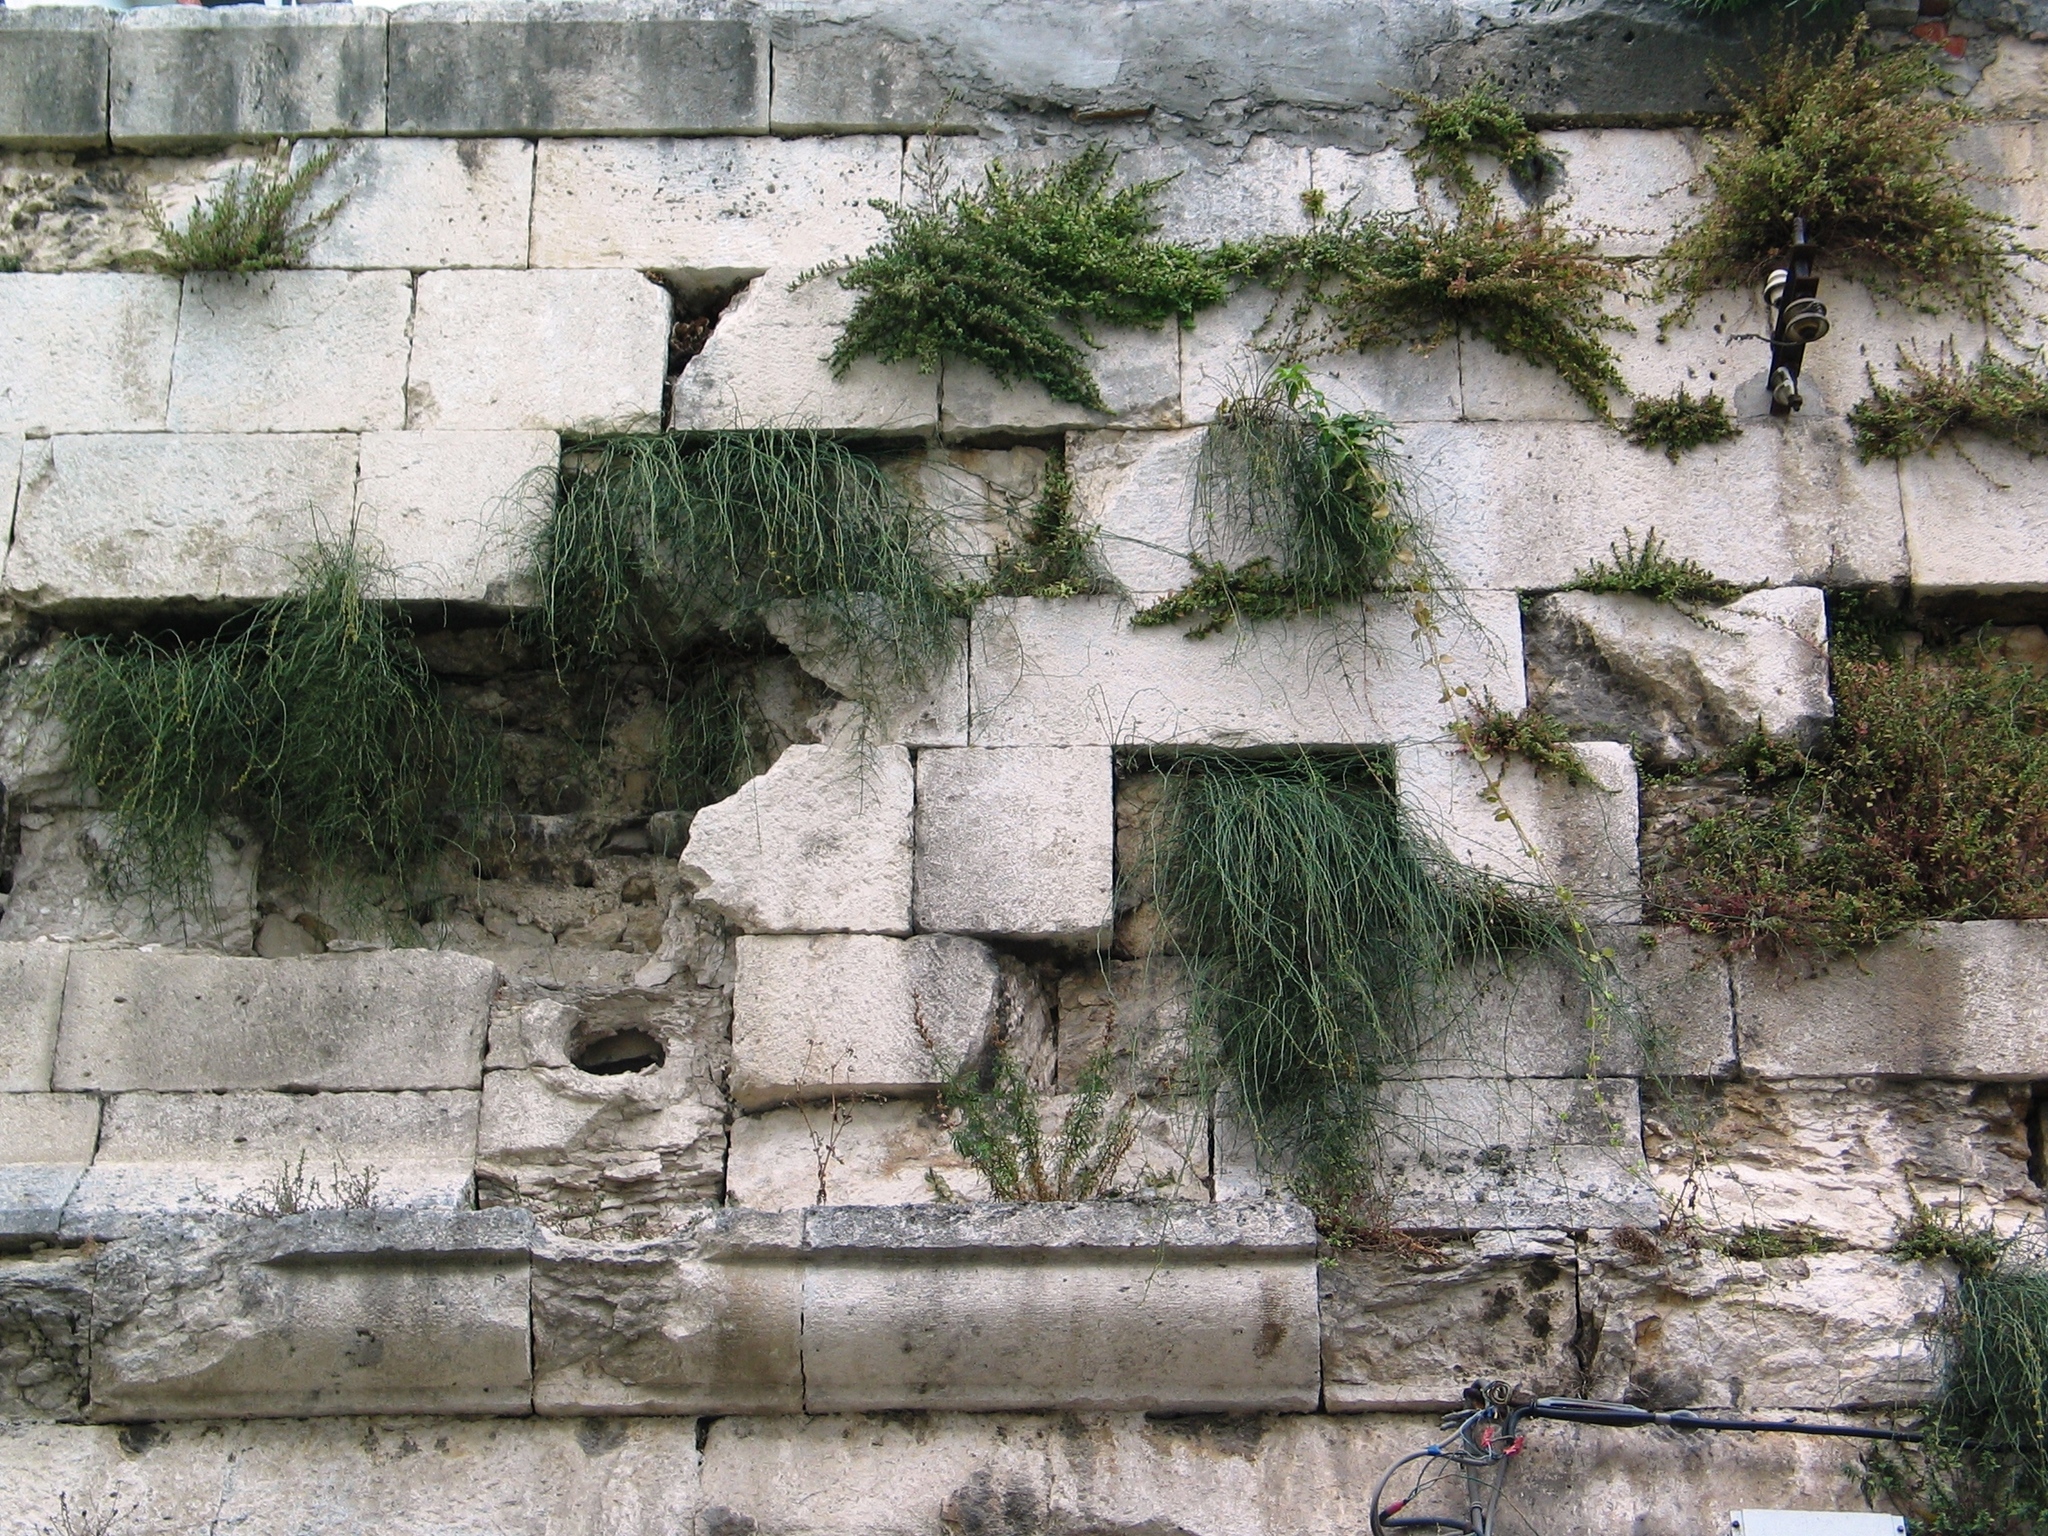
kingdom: Plantae
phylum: Tracheophyta
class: Gnetopsida
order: Ephedrales
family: Ephedraceae
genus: Ephedra
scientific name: Ephedra foeminea
